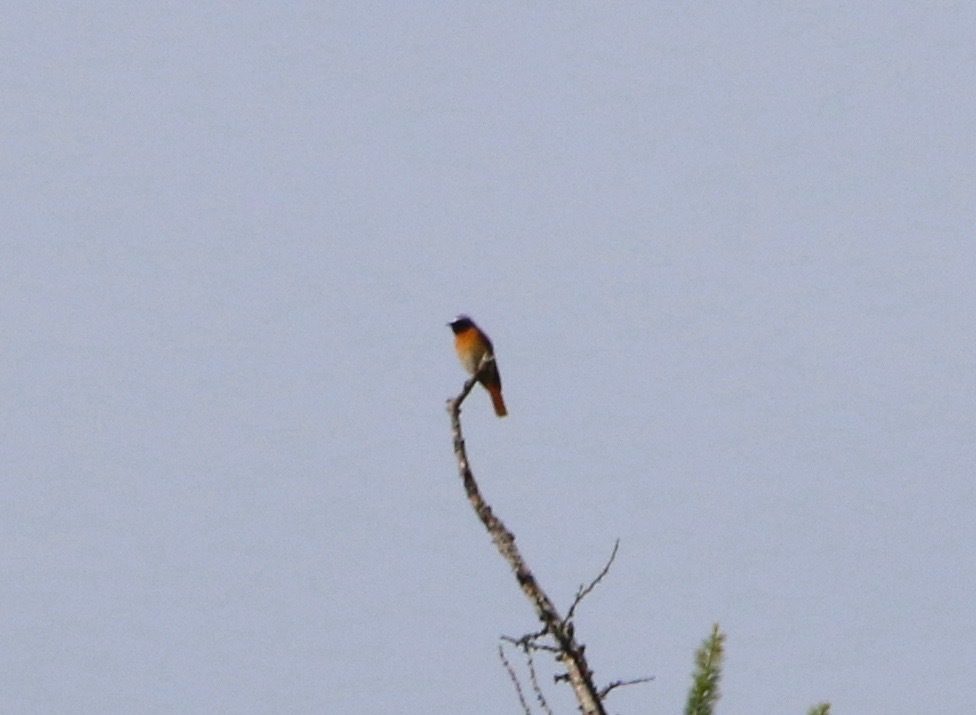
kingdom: Animalia
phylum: Chordata
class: Aves
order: Passeriformes
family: Muscicapidae
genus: Phoenicurus
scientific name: Phoenicurus phoenicurus
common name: Common redstart
